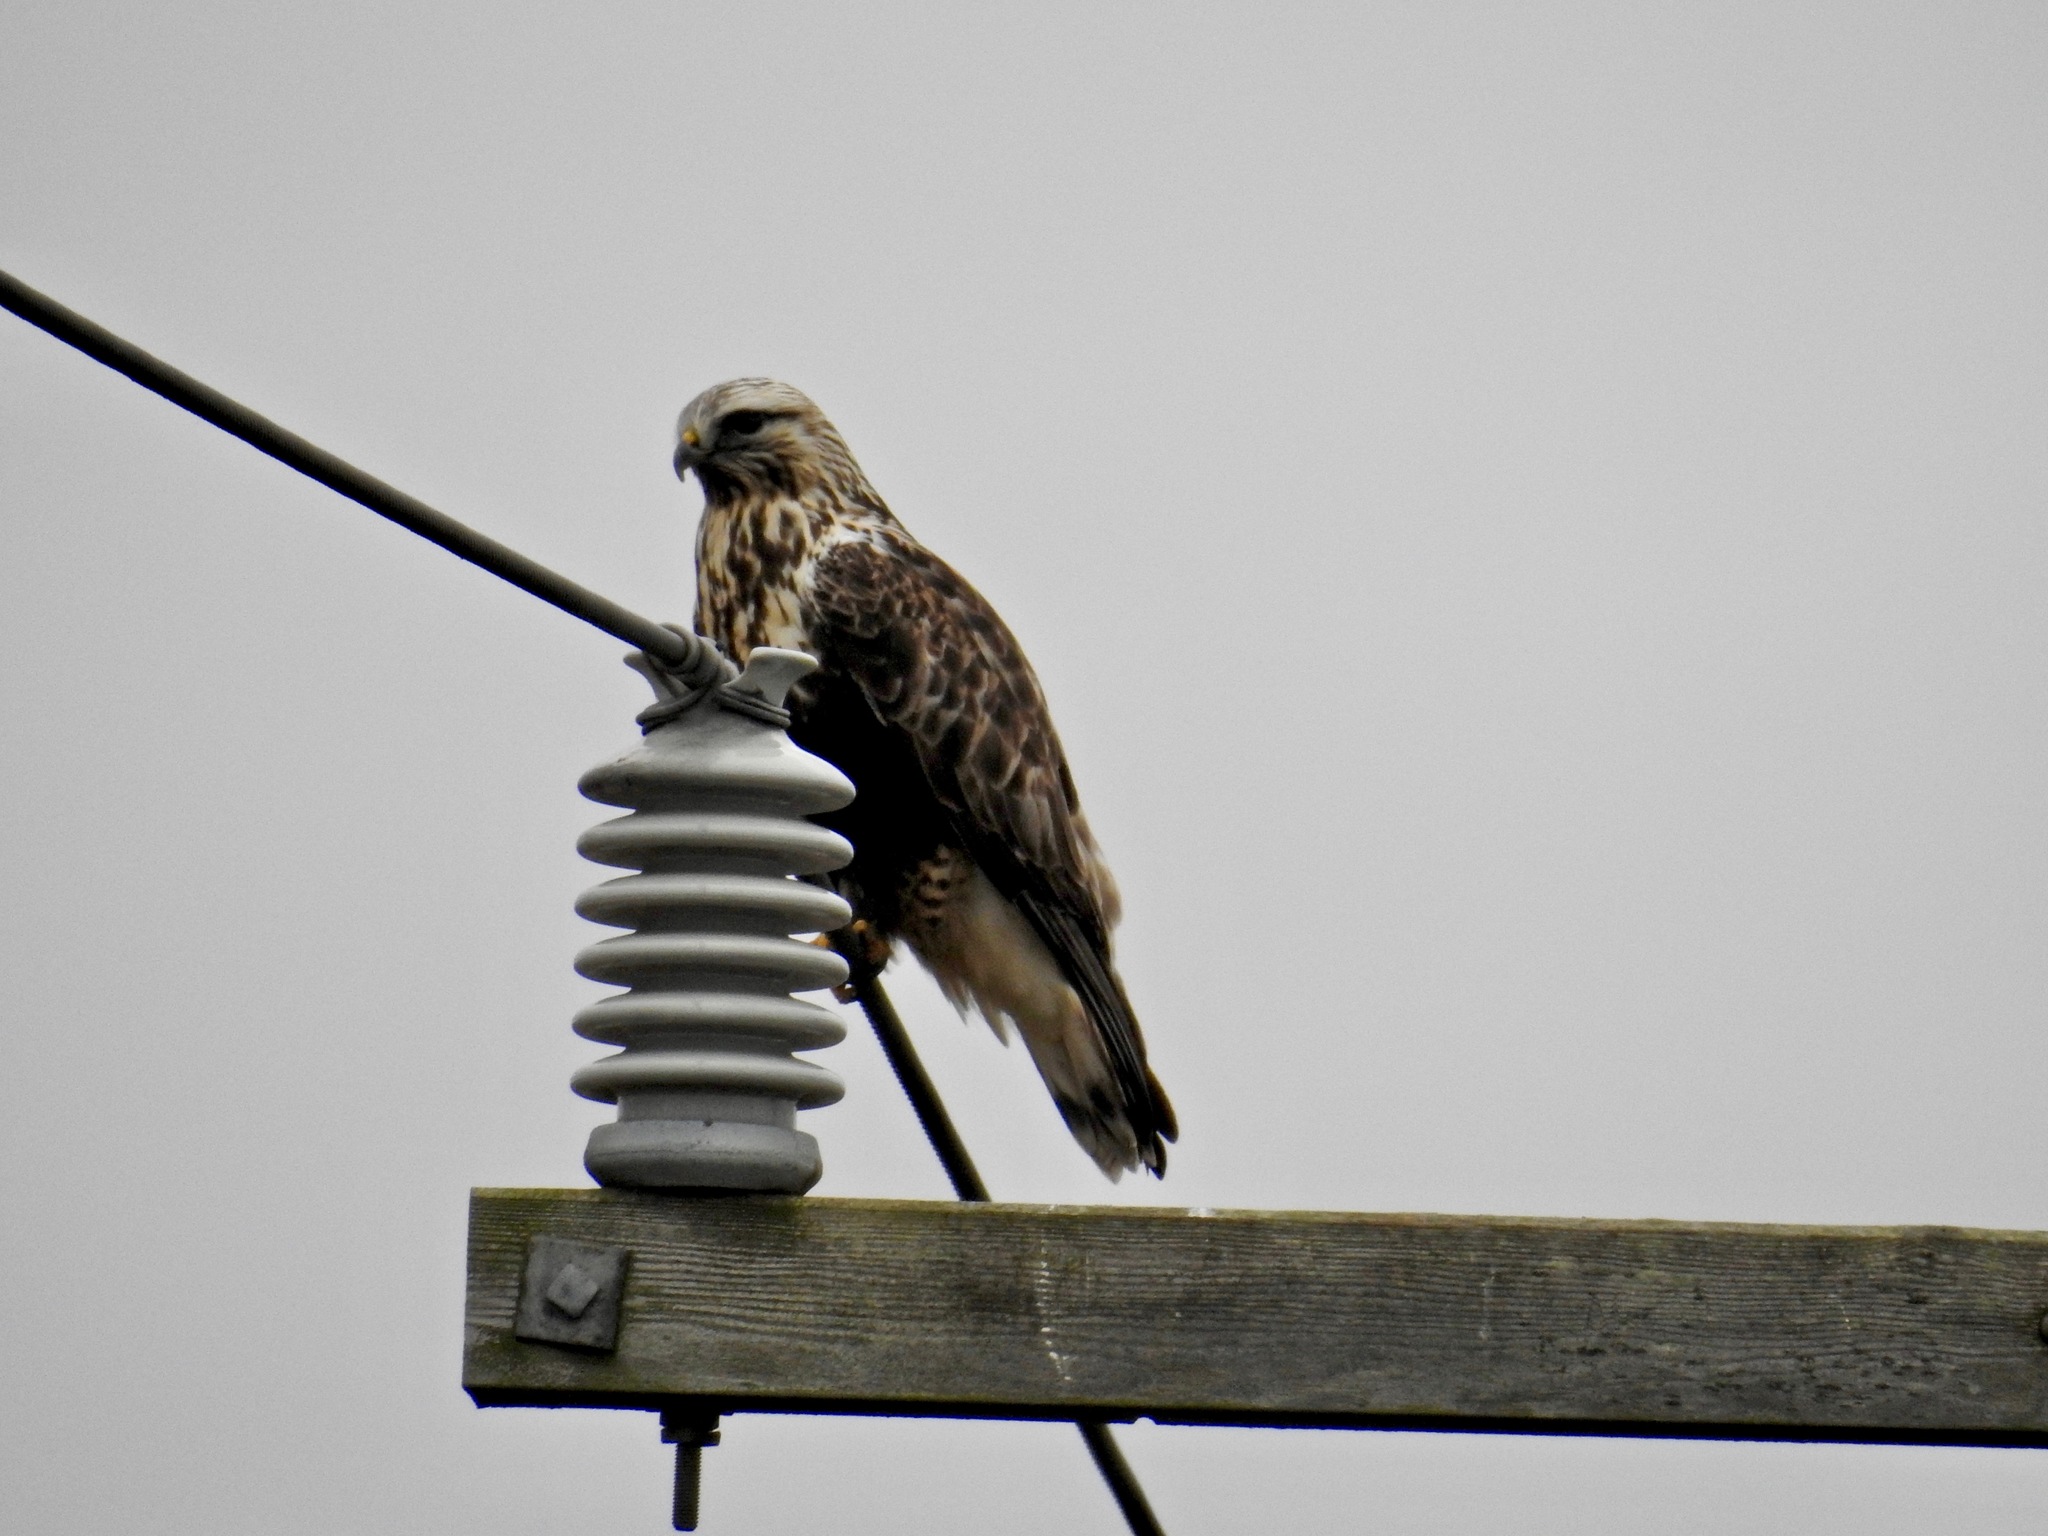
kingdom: Animalia
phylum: Chordata
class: Aves
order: Accipitriformes
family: Accipitridae
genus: Buteo
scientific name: Buteo lagopus
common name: Rough-legged buzzard
